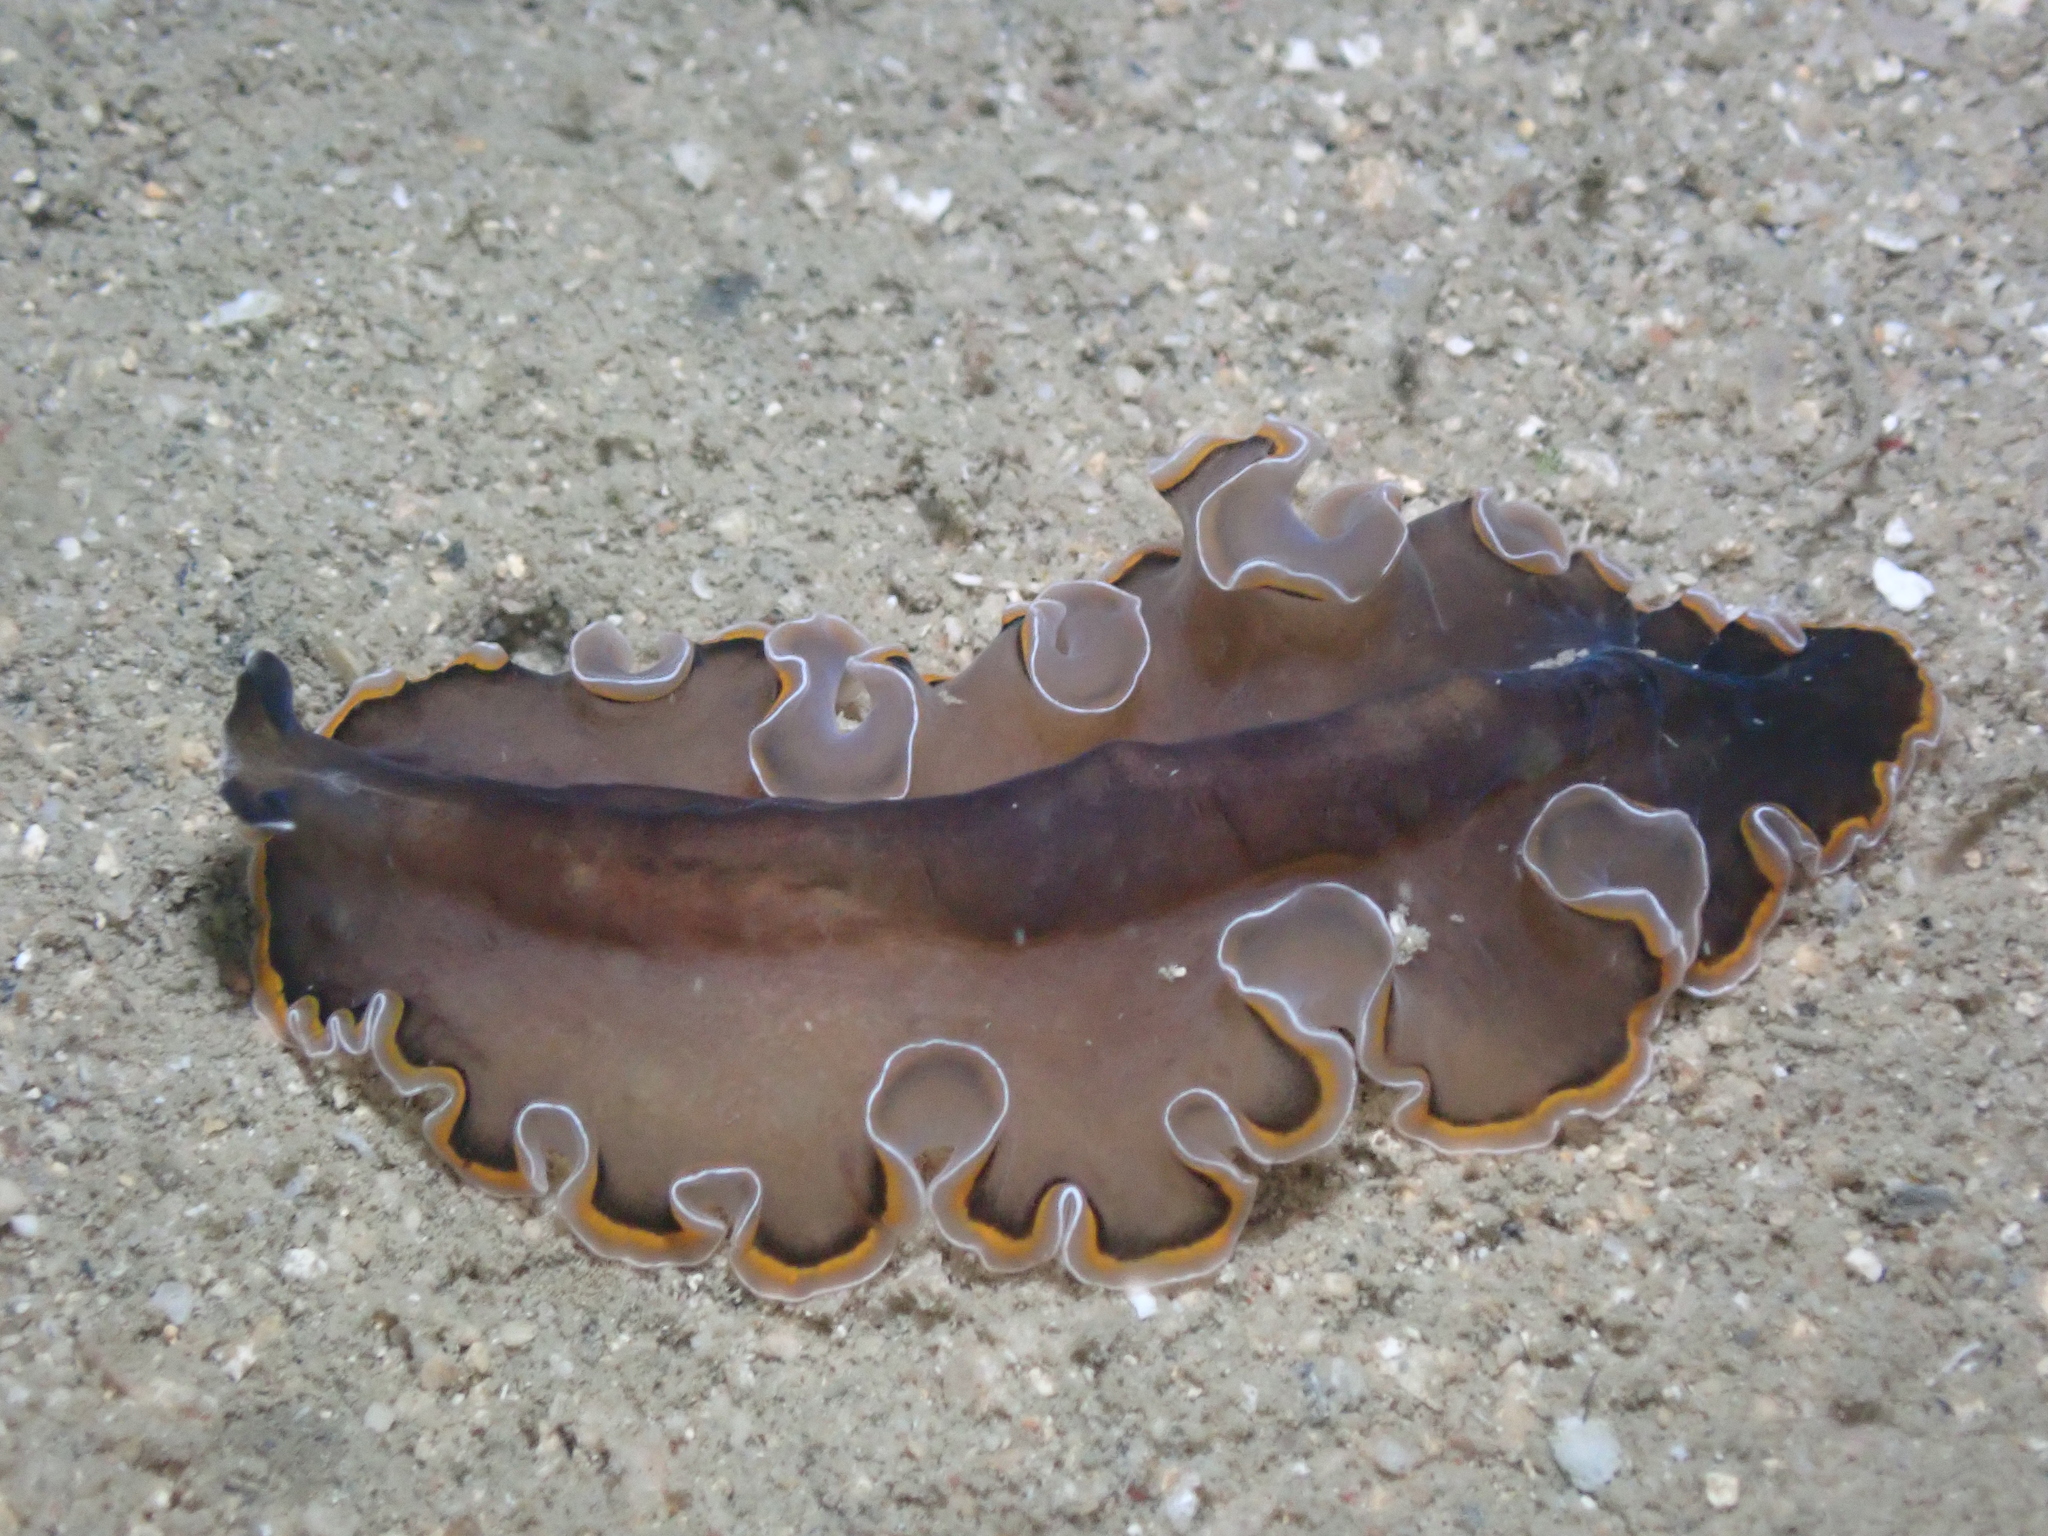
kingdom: Animalia
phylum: Platyhelminthes
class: Turbellaria
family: Pseudocerotidae
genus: Pseudobiceros
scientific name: Pseudobiceros hancockanus
